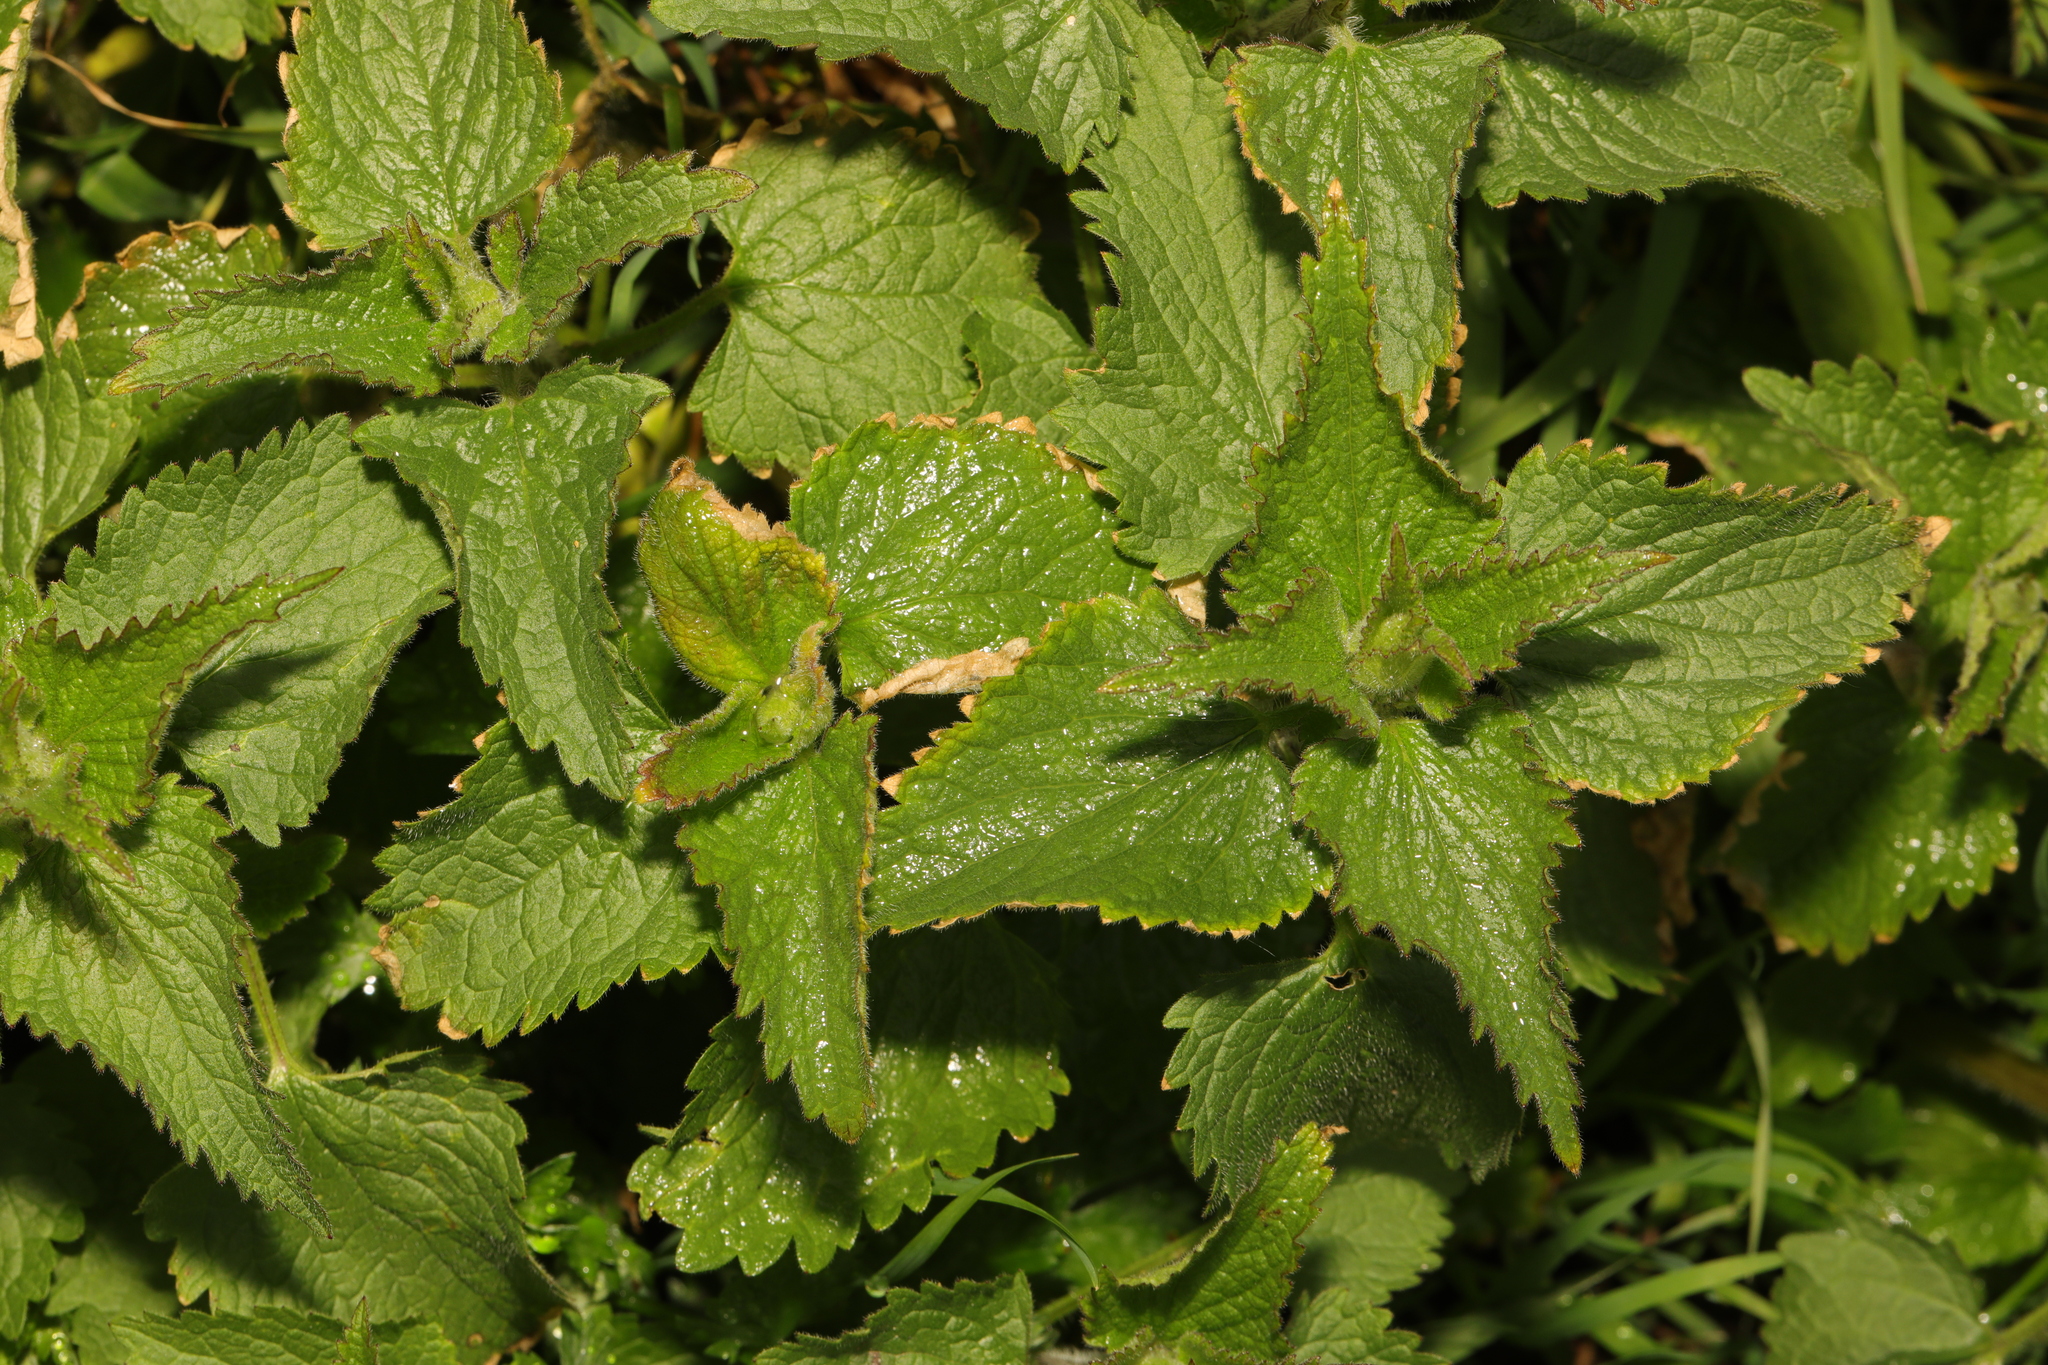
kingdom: Plantae
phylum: Tracheophyta
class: Magnoliopsida
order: Rosales
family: Urticaceae
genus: Urtica
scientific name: Urtica dioica
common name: Common nettle
